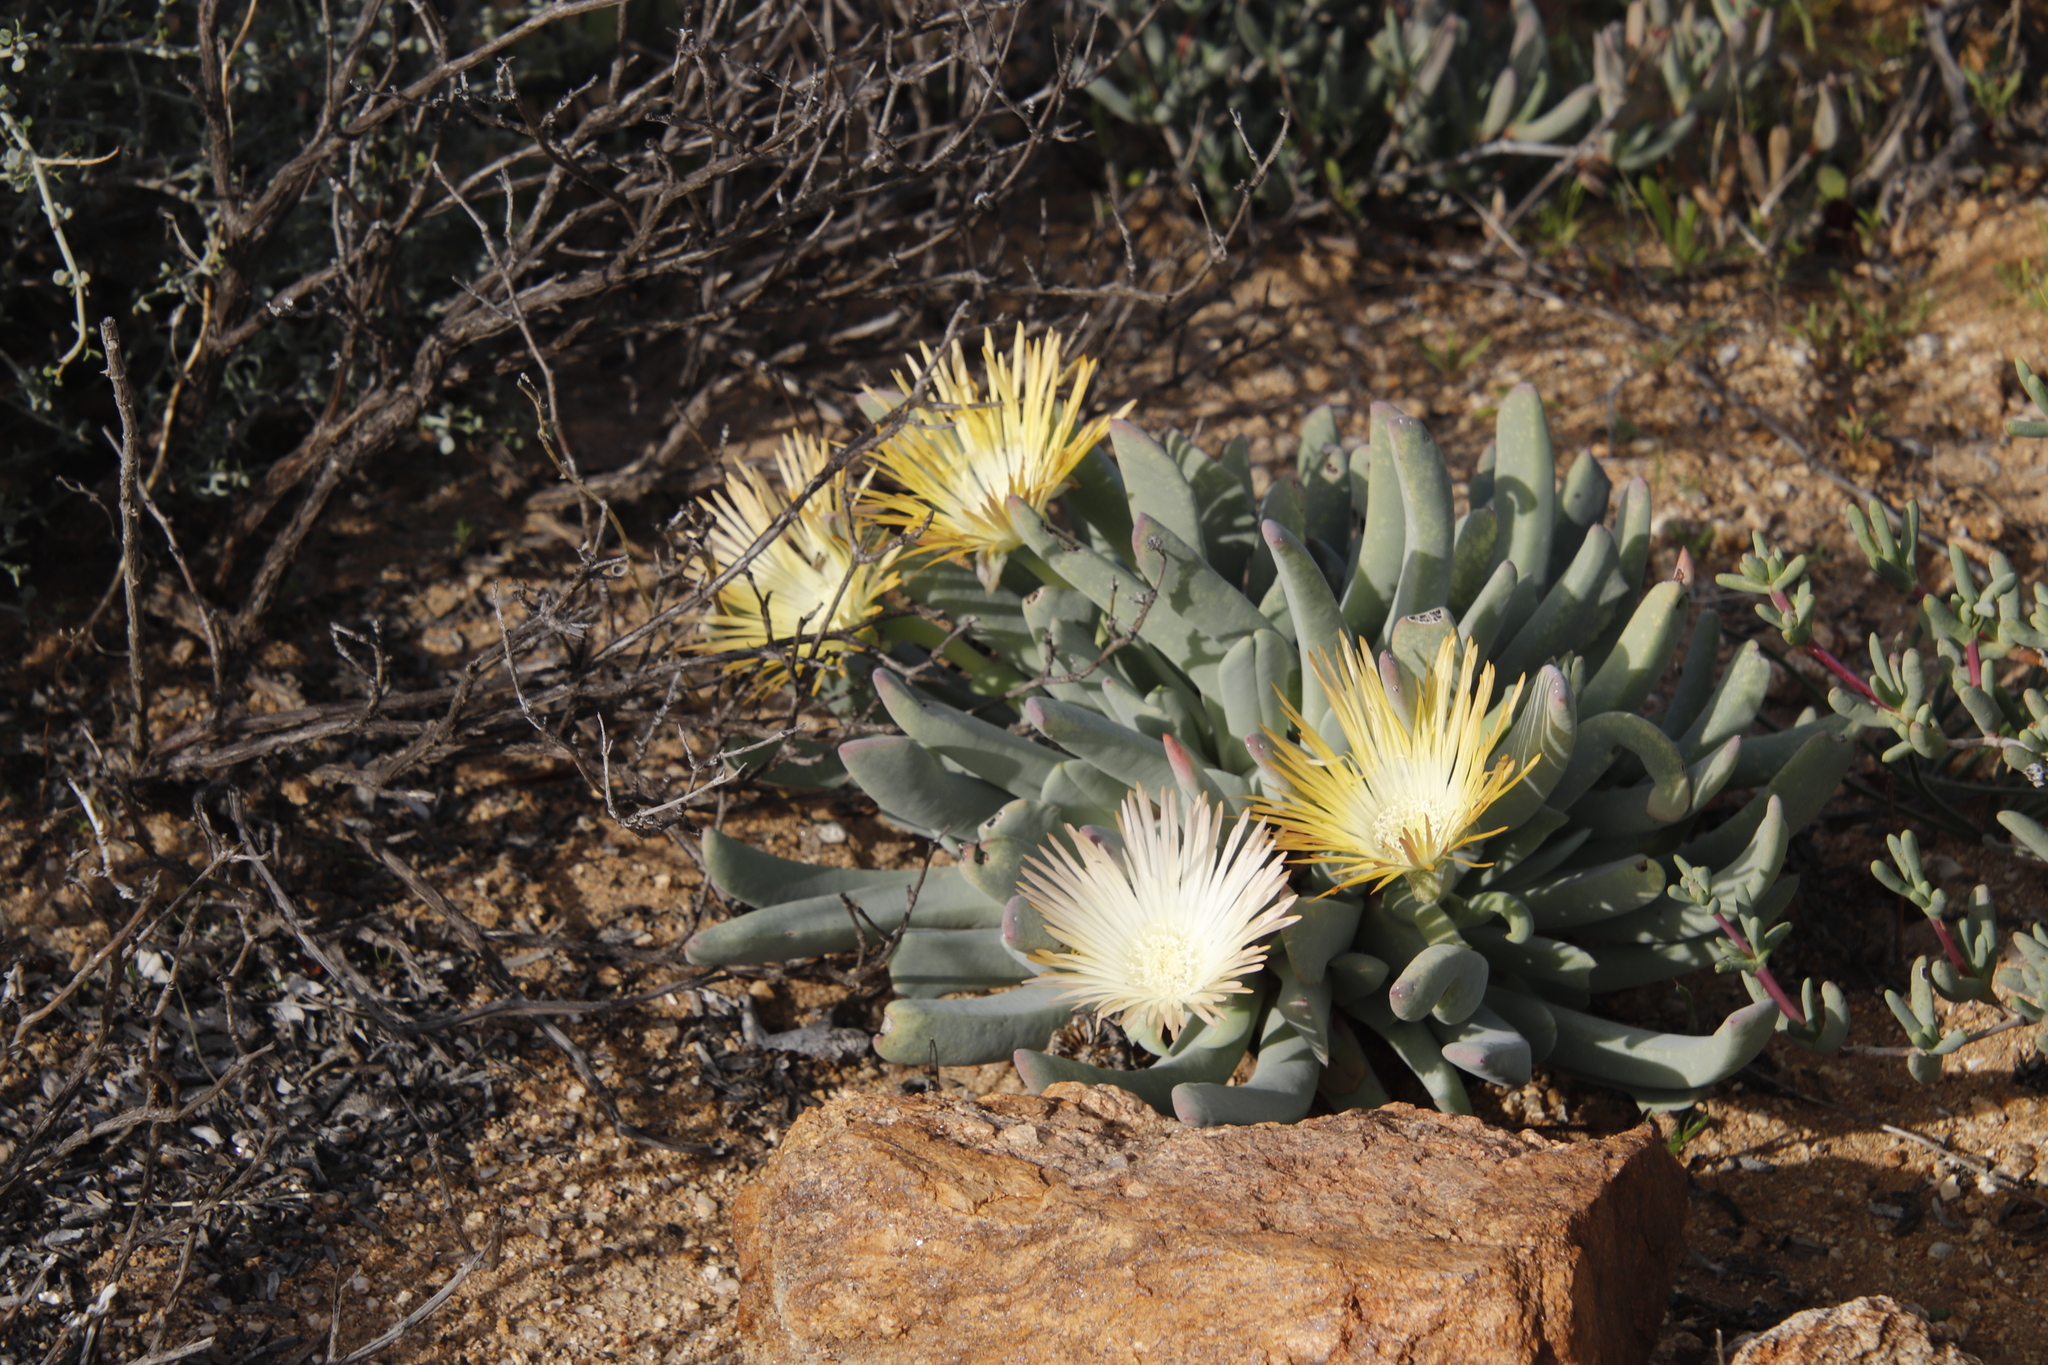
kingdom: Plantae
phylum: Tracheophyta
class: Magnoliopsida
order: Caryophyllales
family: Aizoaceae
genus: Cheiridopsis
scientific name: Cheiridopsis denticulata
